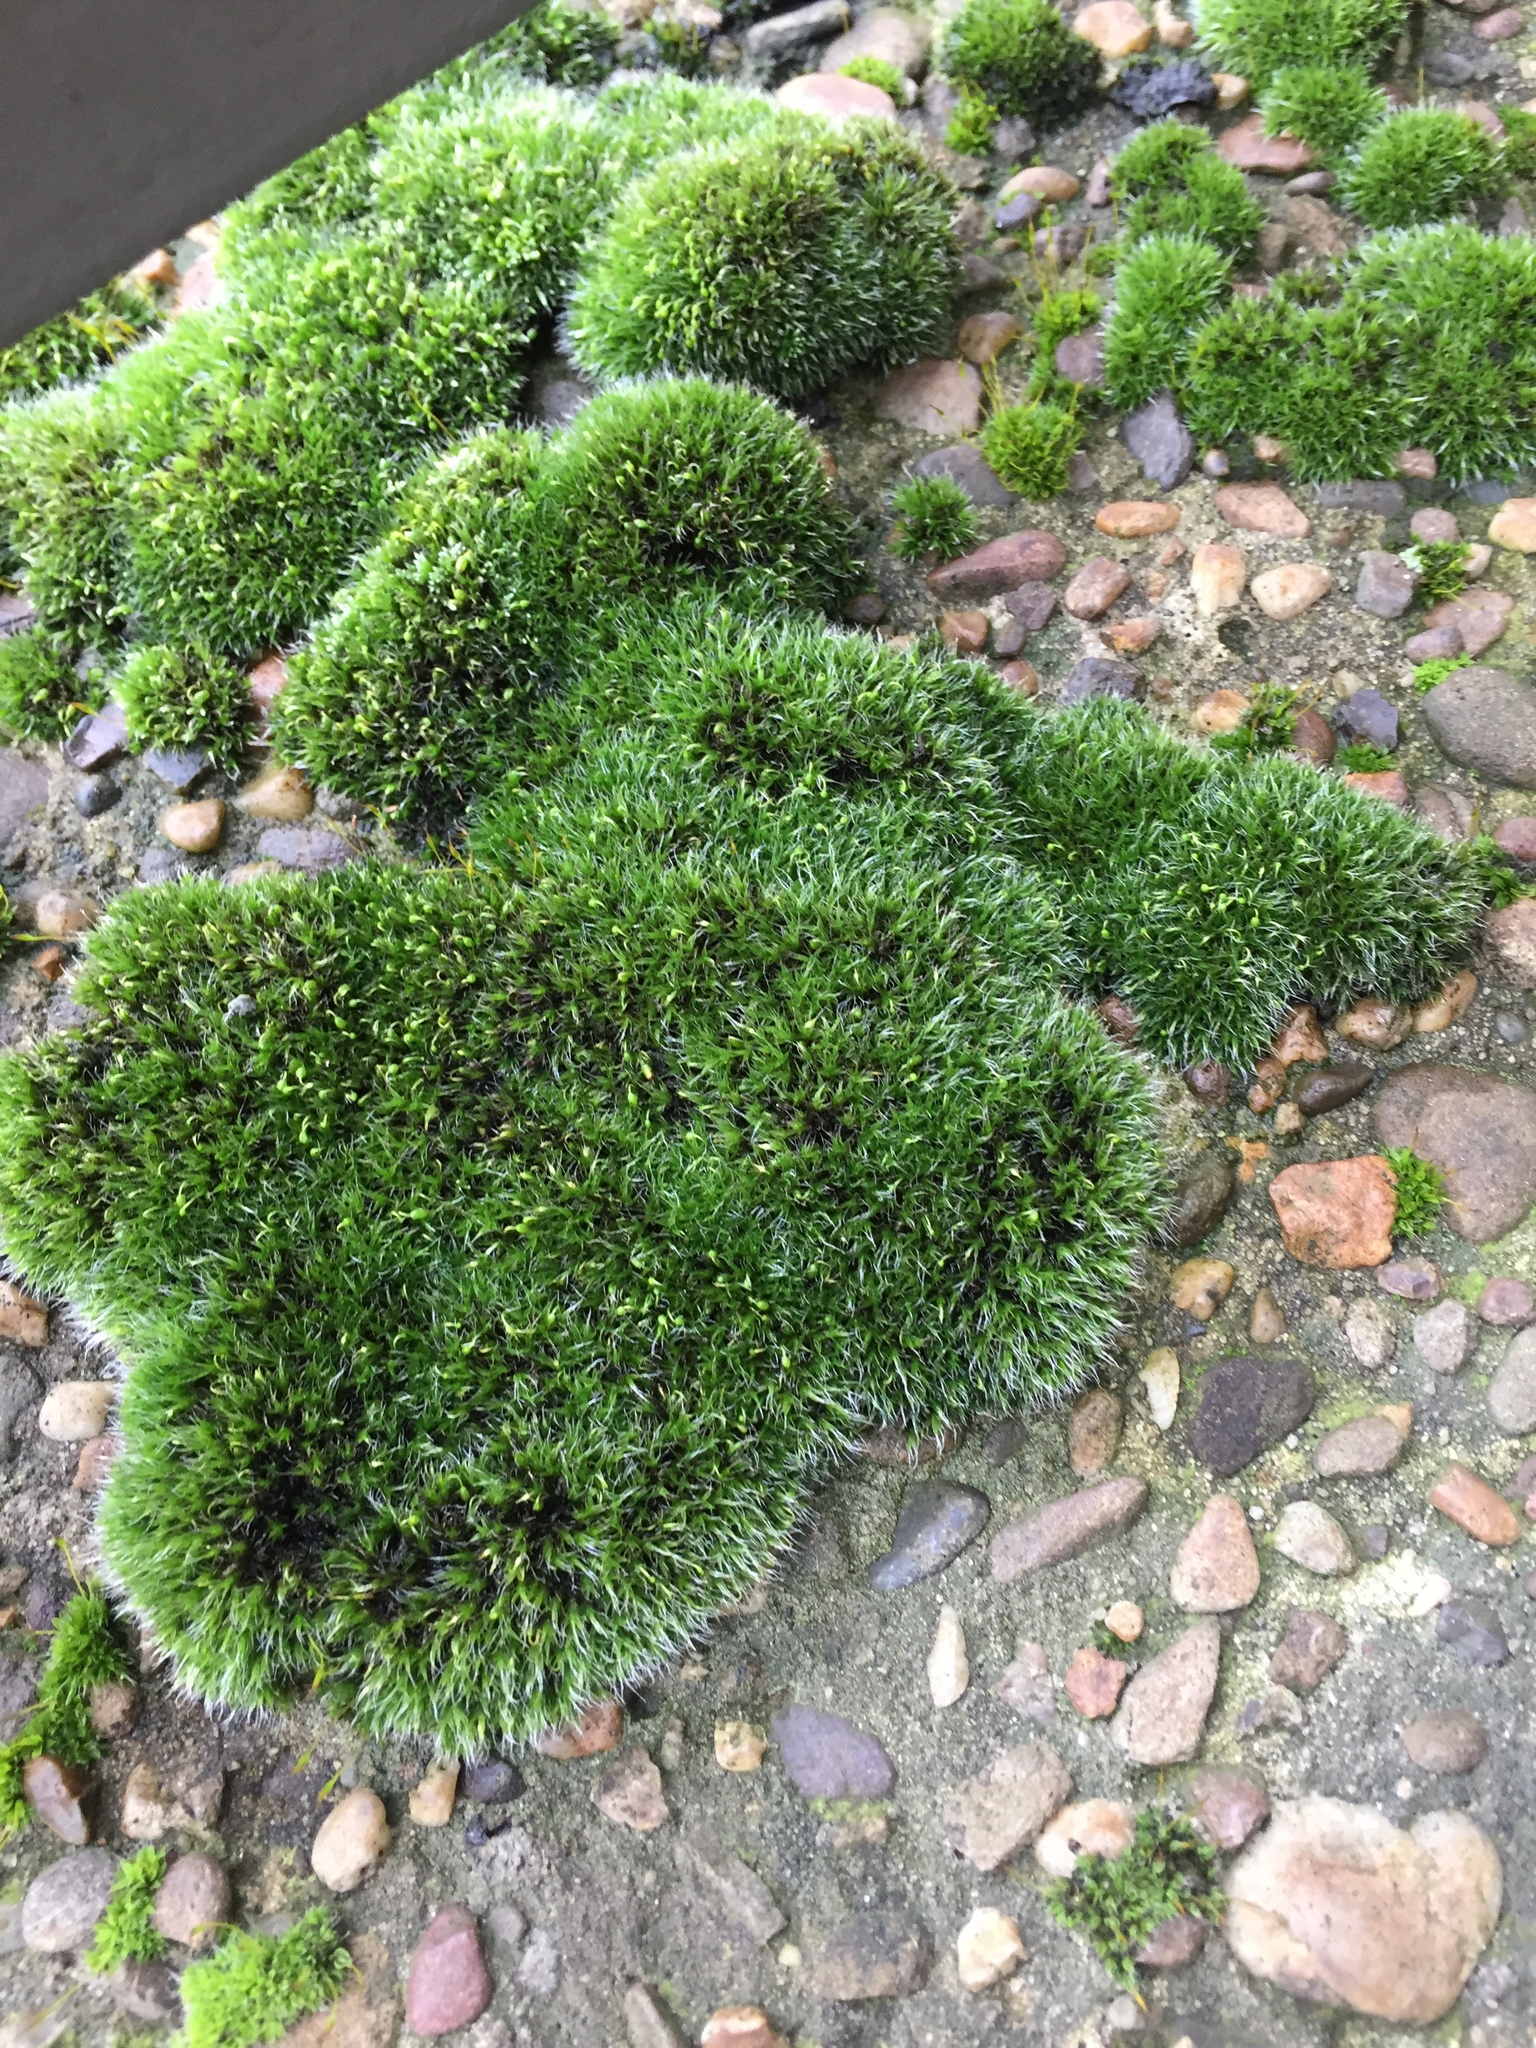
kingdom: Plantae
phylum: Bryophyta
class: Bryopsida
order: Grimmiales
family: Grimmiaceae
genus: Grimmia
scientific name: Grimmia pulvinata
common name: Grey-cushioned grimmia
